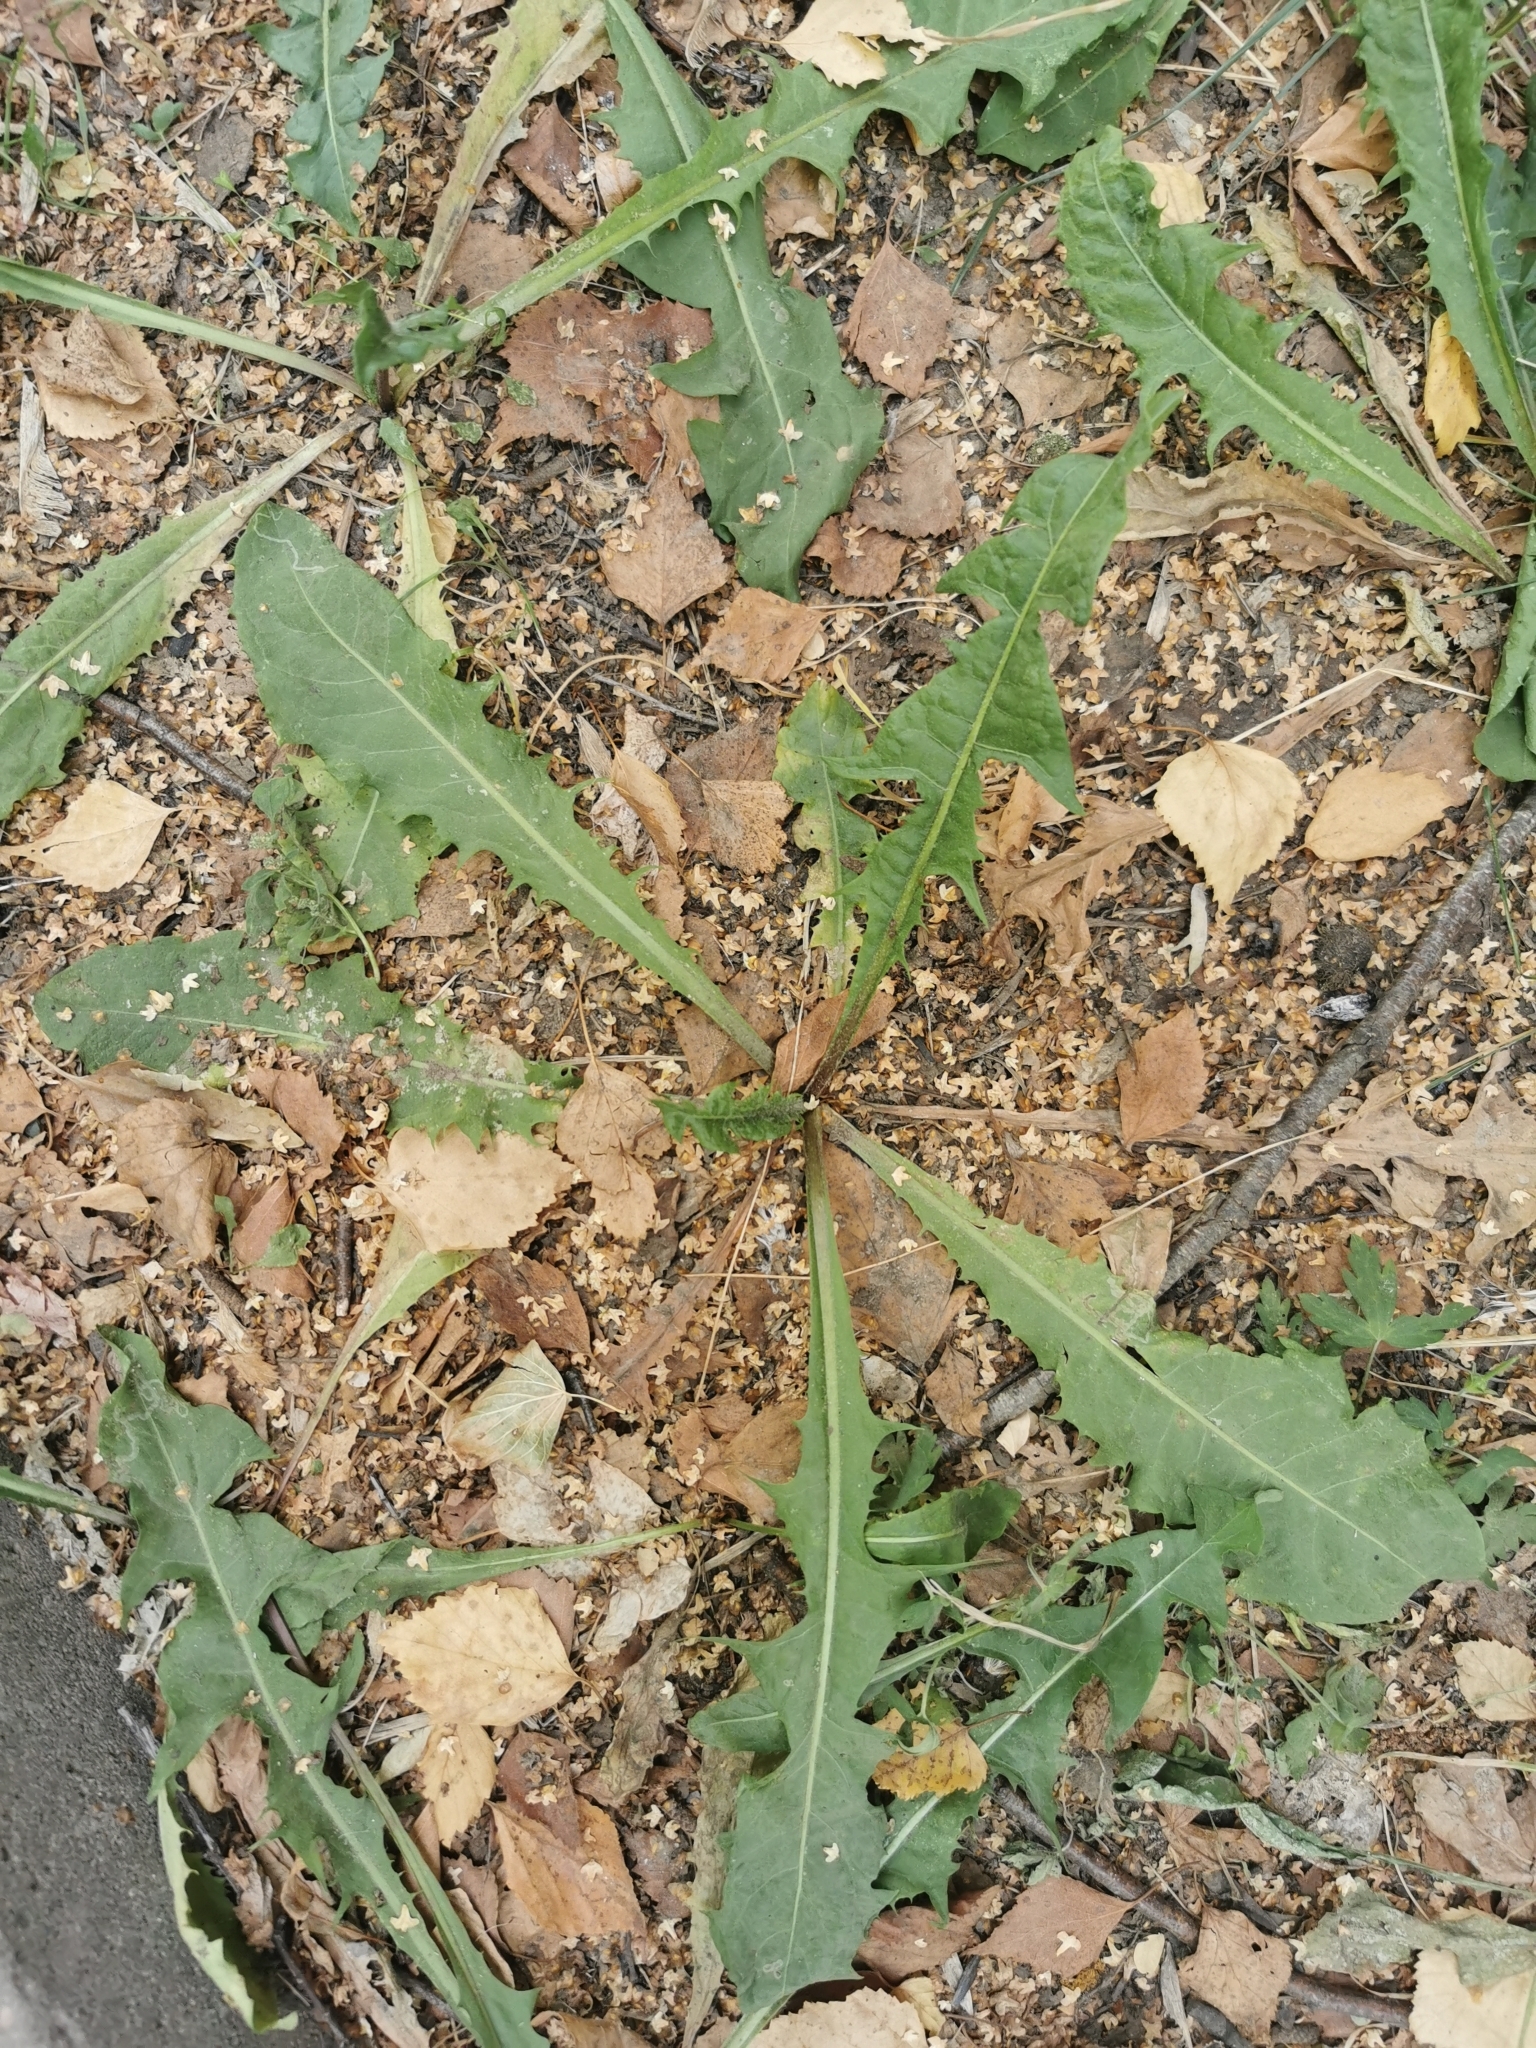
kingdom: Plantae
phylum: Tracheophyta
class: Magnoliopsida
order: Asterales
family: Asteraceae
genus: Taraxacum
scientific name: Taraxacum officinale
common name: Common dandelion
